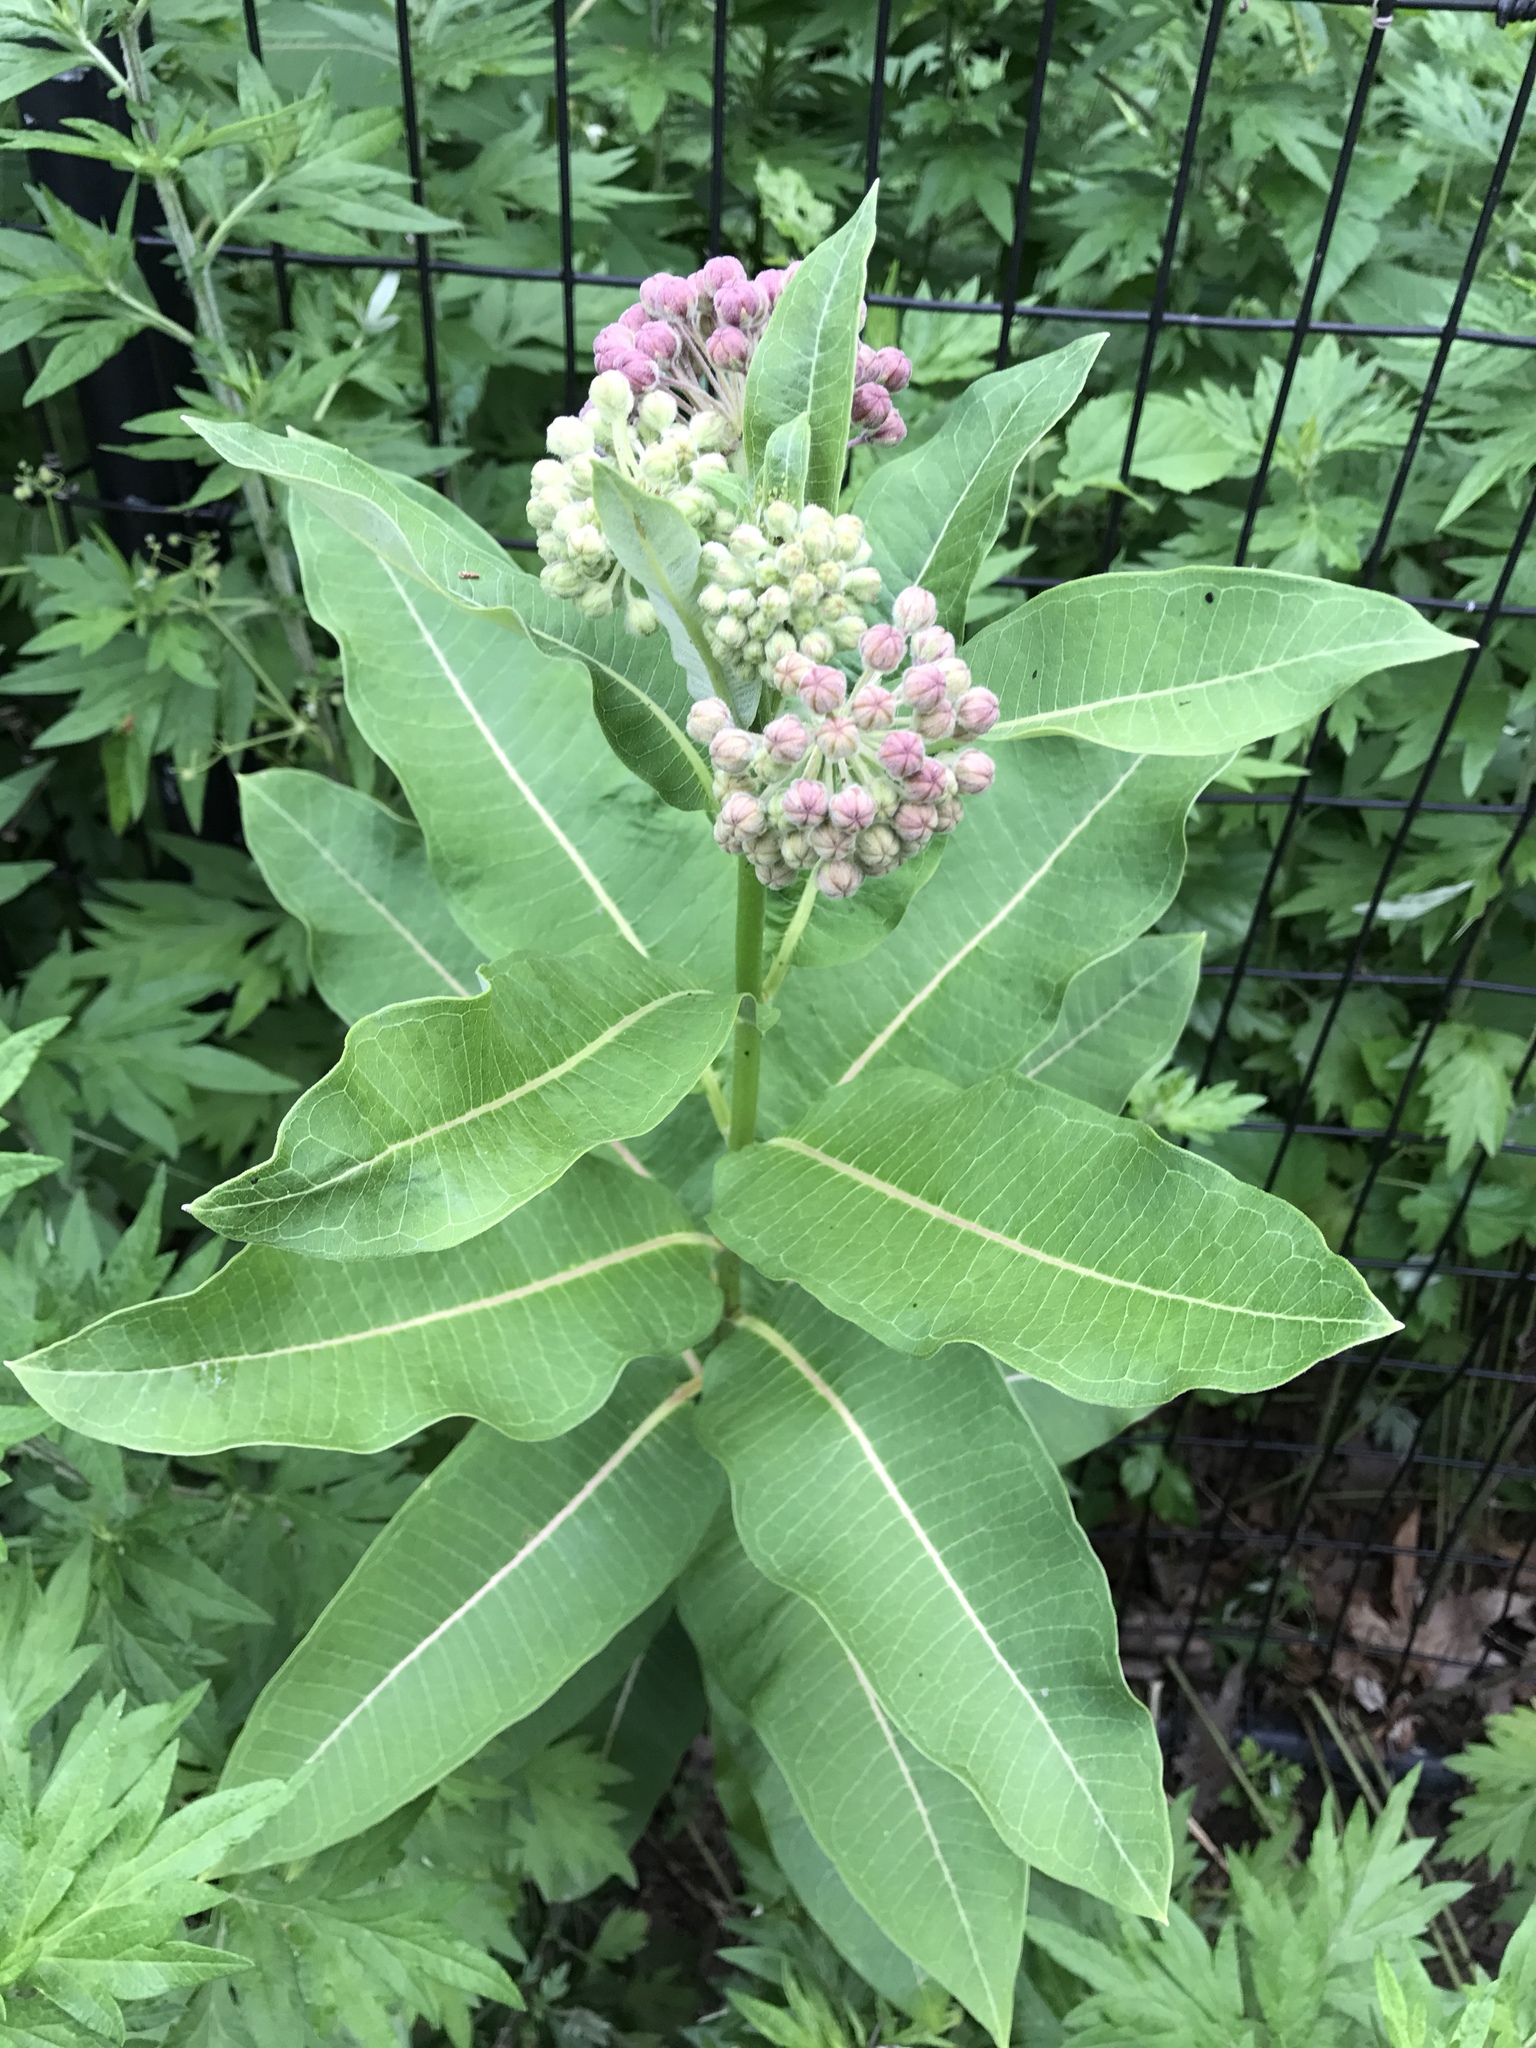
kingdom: Plantae
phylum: Tracheophyta
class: Magnoliopsida
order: Gentianales
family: Apocynaceae
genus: Asclepias
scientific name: Asclepias syriaca
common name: Common milkweed
